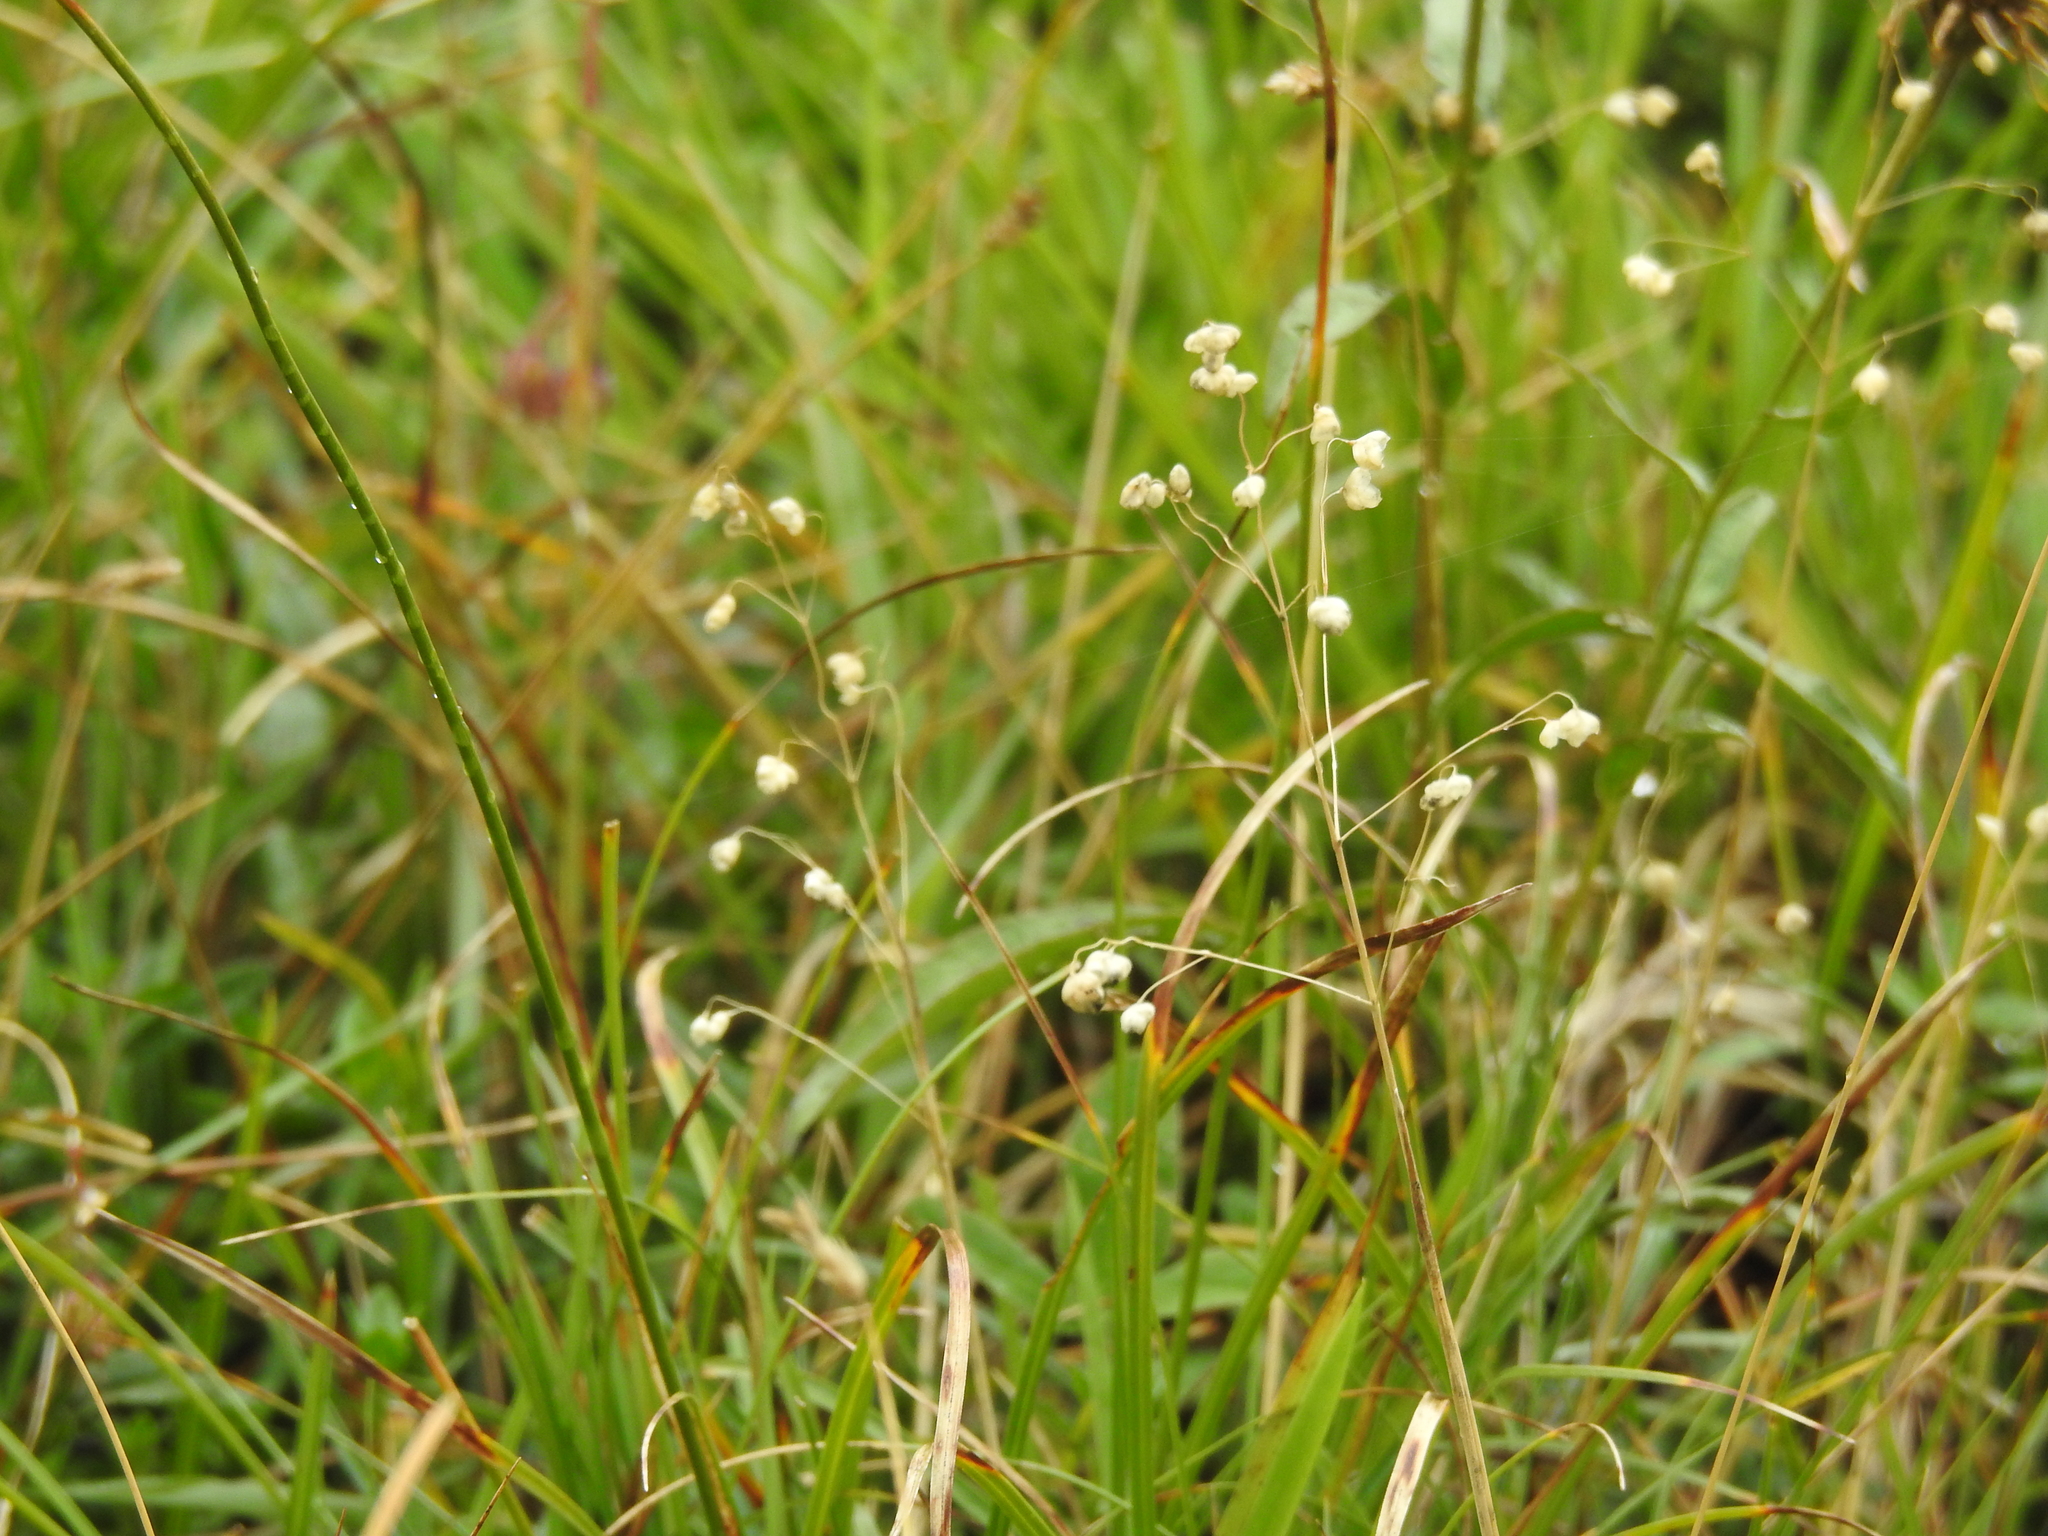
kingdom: Plantae
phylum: Tracheophyta
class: Liliopsida
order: Poales
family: Poaceae
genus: Briza
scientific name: Briza media
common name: Quaking grass
